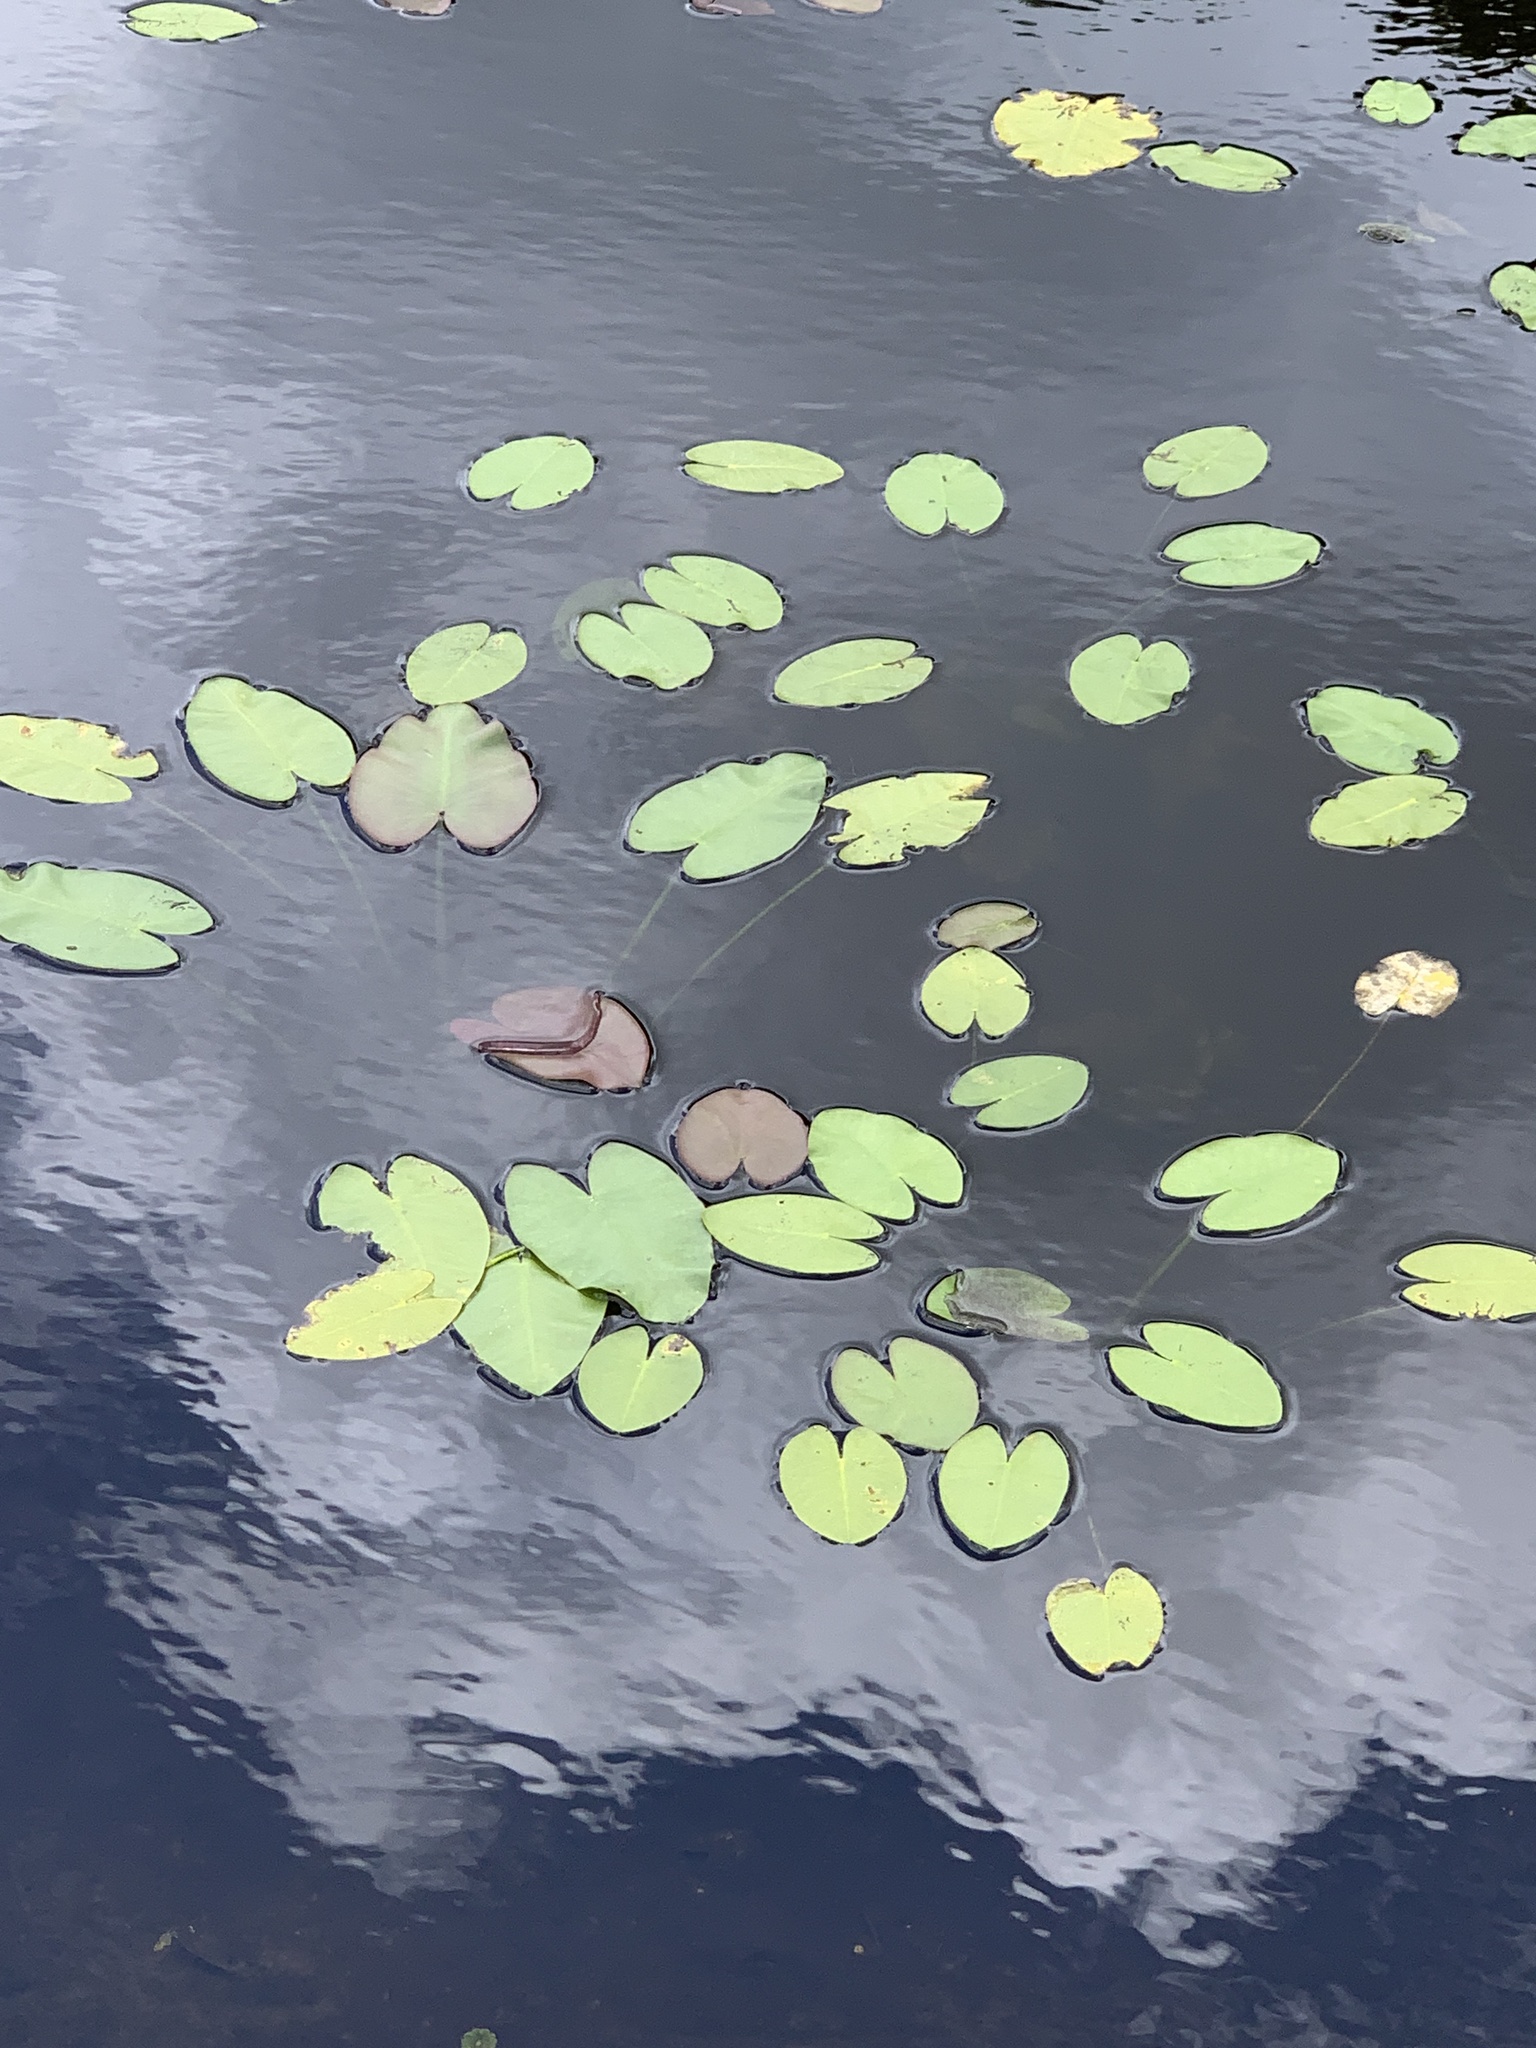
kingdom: Plantae
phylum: Tracheophyta
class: Magnoliopsida
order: Nymphaeales
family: Nymphaeaceae
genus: Nymphaea
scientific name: Nymphaea odorata
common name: Fragrant water-lily
